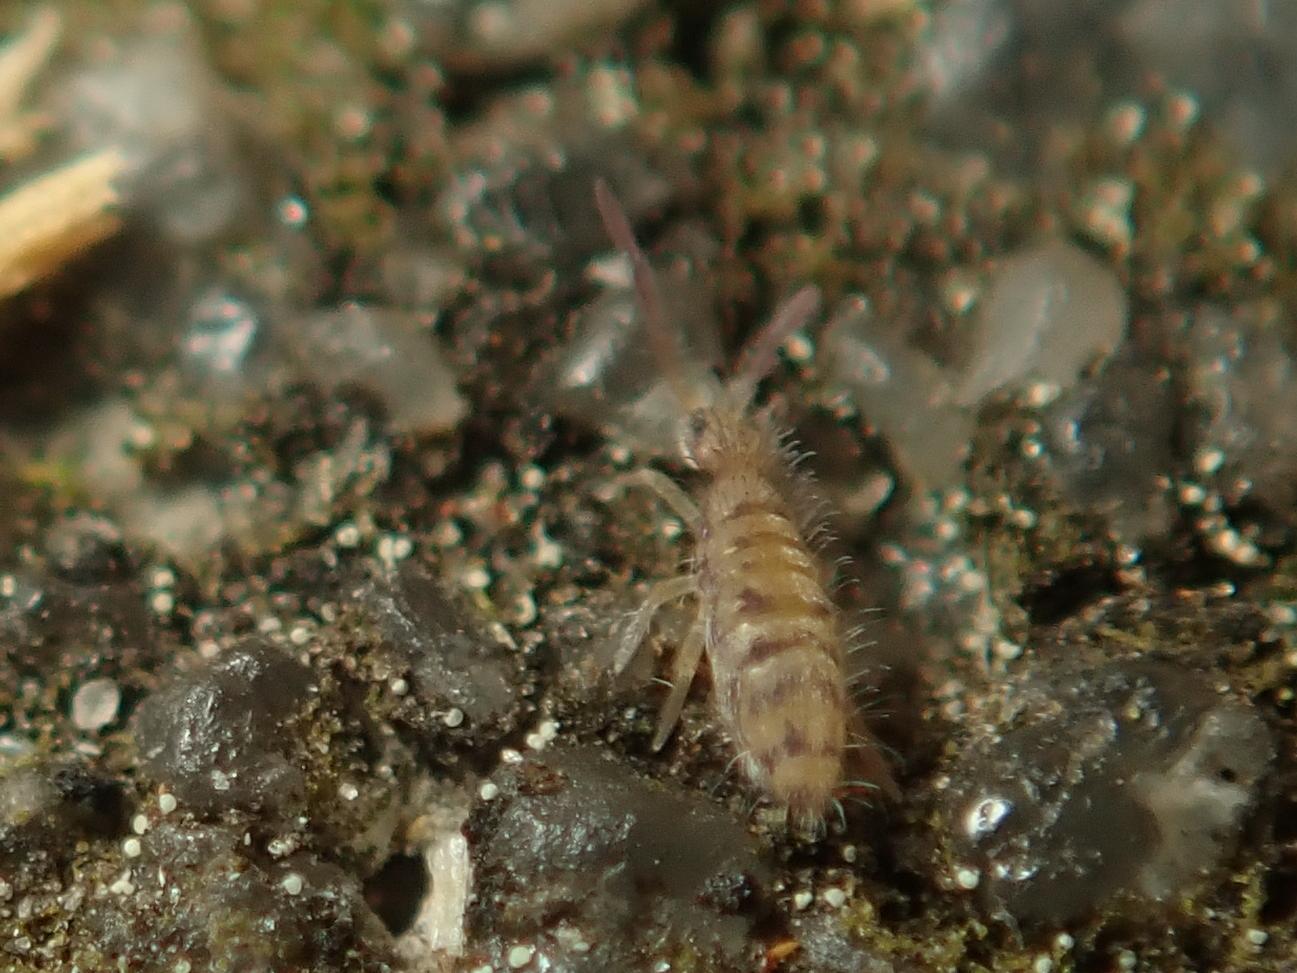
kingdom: Animalia
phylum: Arthropoda
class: Collembola
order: Entomobryomorpha
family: Entomobryidae
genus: Entomobrya
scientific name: Entomobrya multifasciata
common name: Springtail
